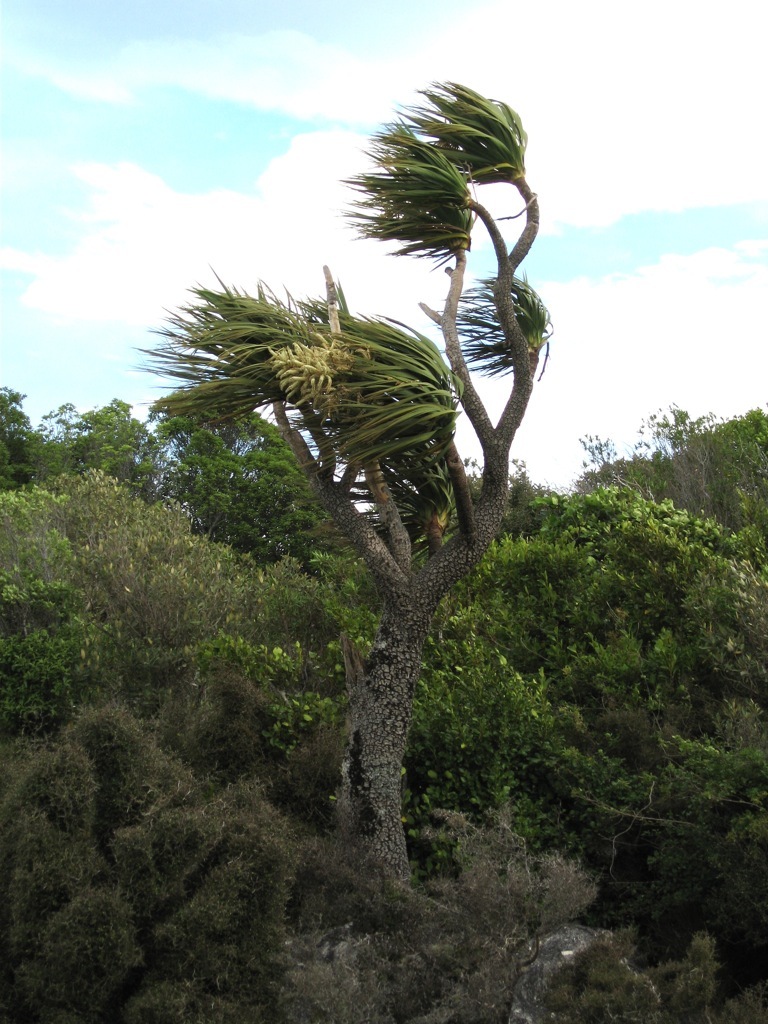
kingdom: Plantae
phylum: Tracheophyta
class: Liliopsida
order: Asparagales
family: Asparagaceae
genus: Cordyline
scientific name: Cordyline australis
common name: Cabbage-palm
